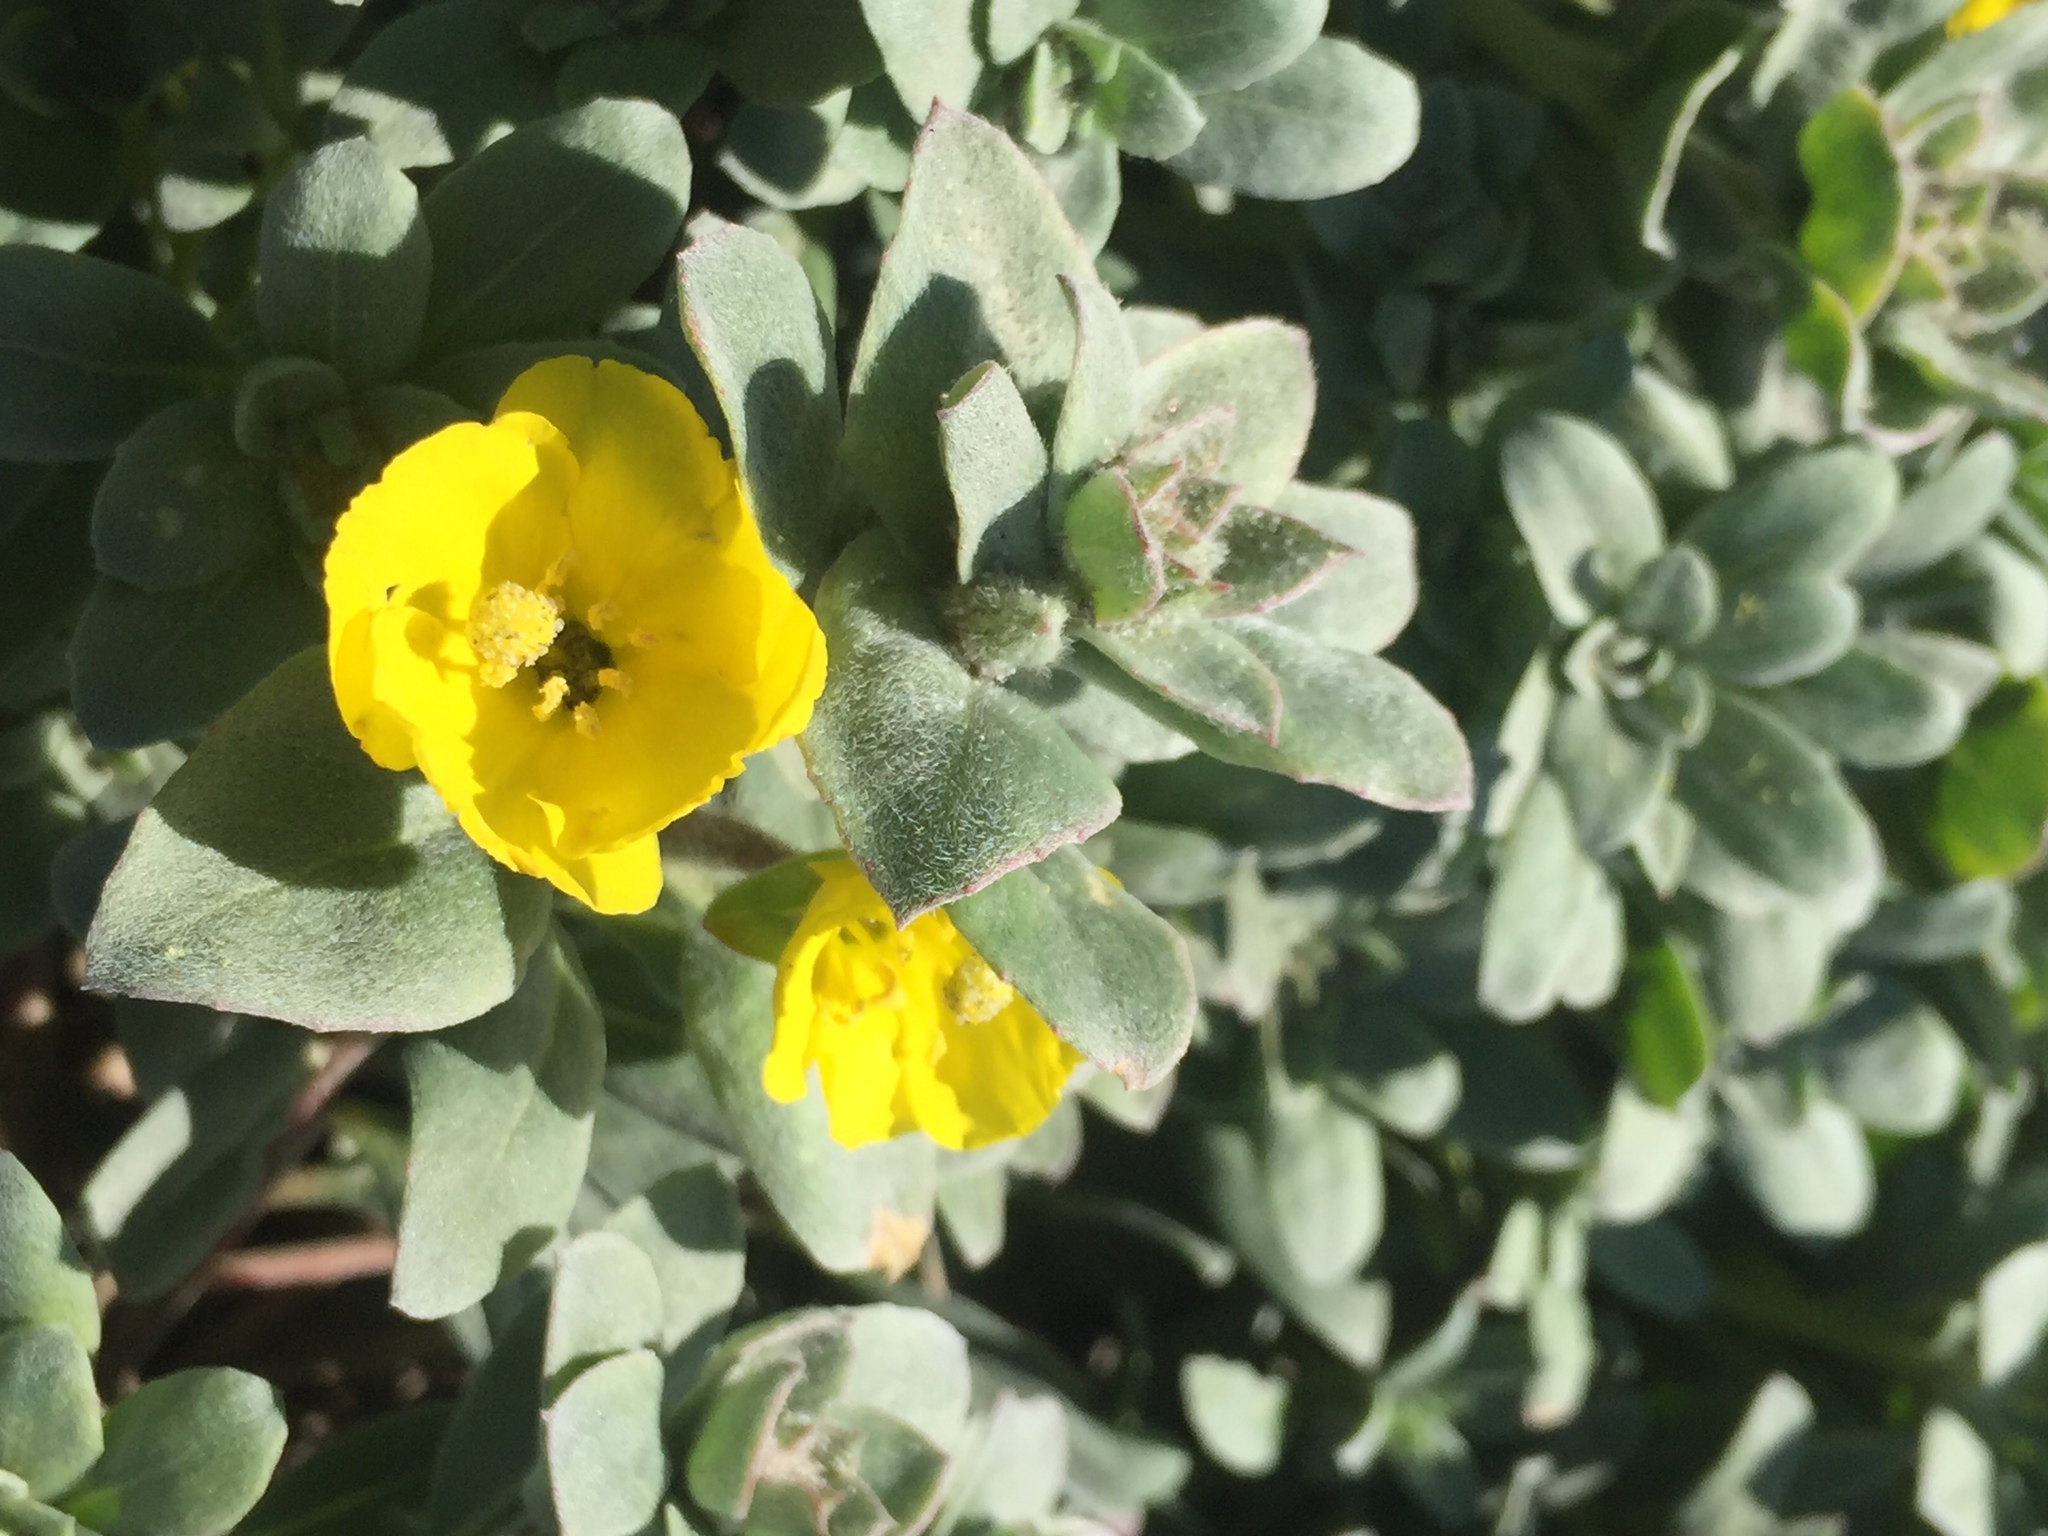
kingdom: Plantae
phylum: Tracheophyta
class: Magnoliopsida
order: Myrtales
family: Onagraceae
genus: Camissoniopsis
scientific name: Camissoniopsis cheiranthifolia
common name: Beach suncup
